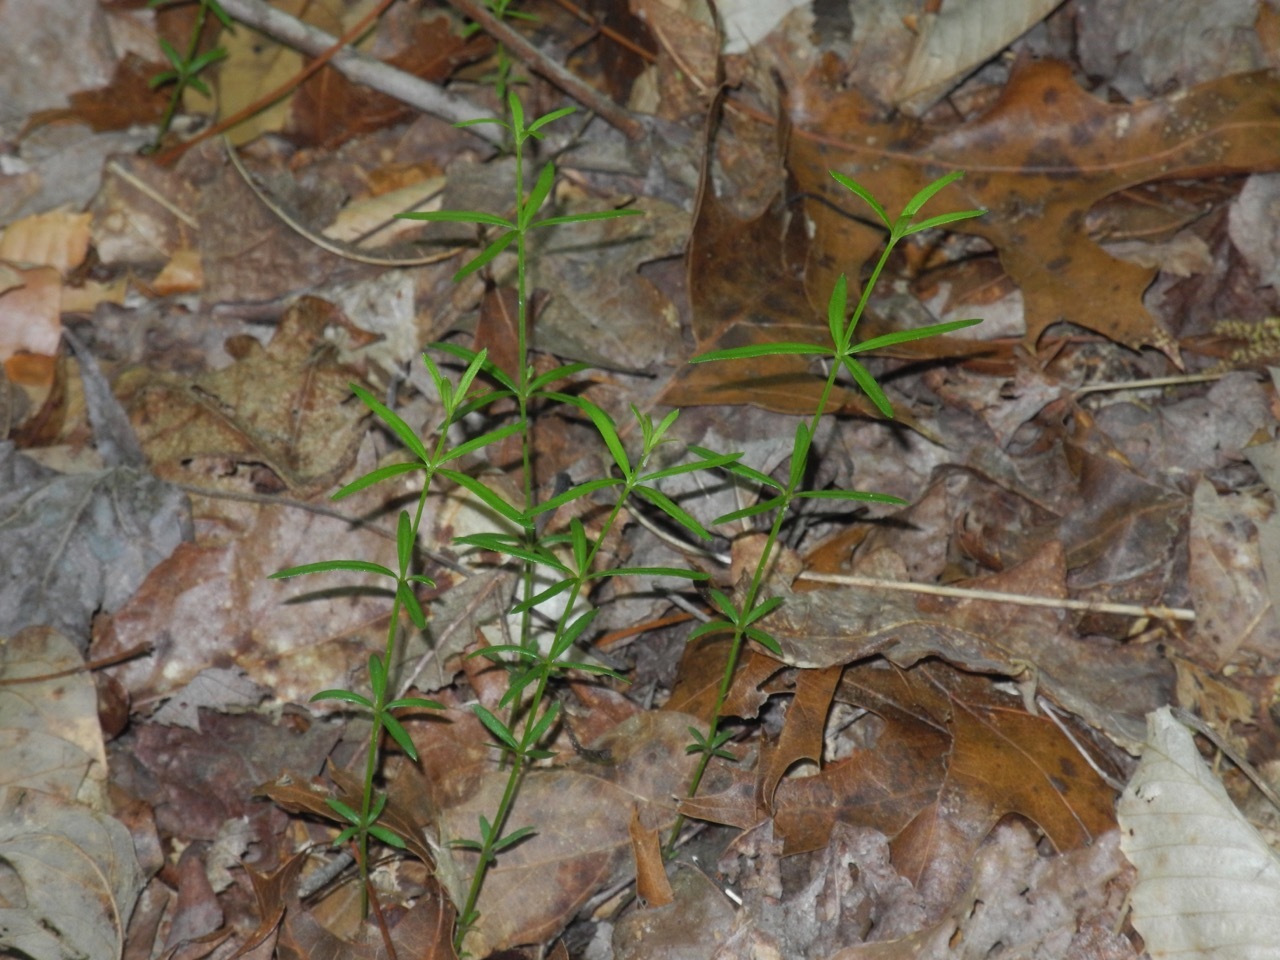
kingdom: Plantae
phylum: Tracheophyta
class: Magnoliopsida
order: Gentianales
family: Rubiaceae
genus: Galium
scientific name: Galium uniflorum
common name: One-flower bedstraw
